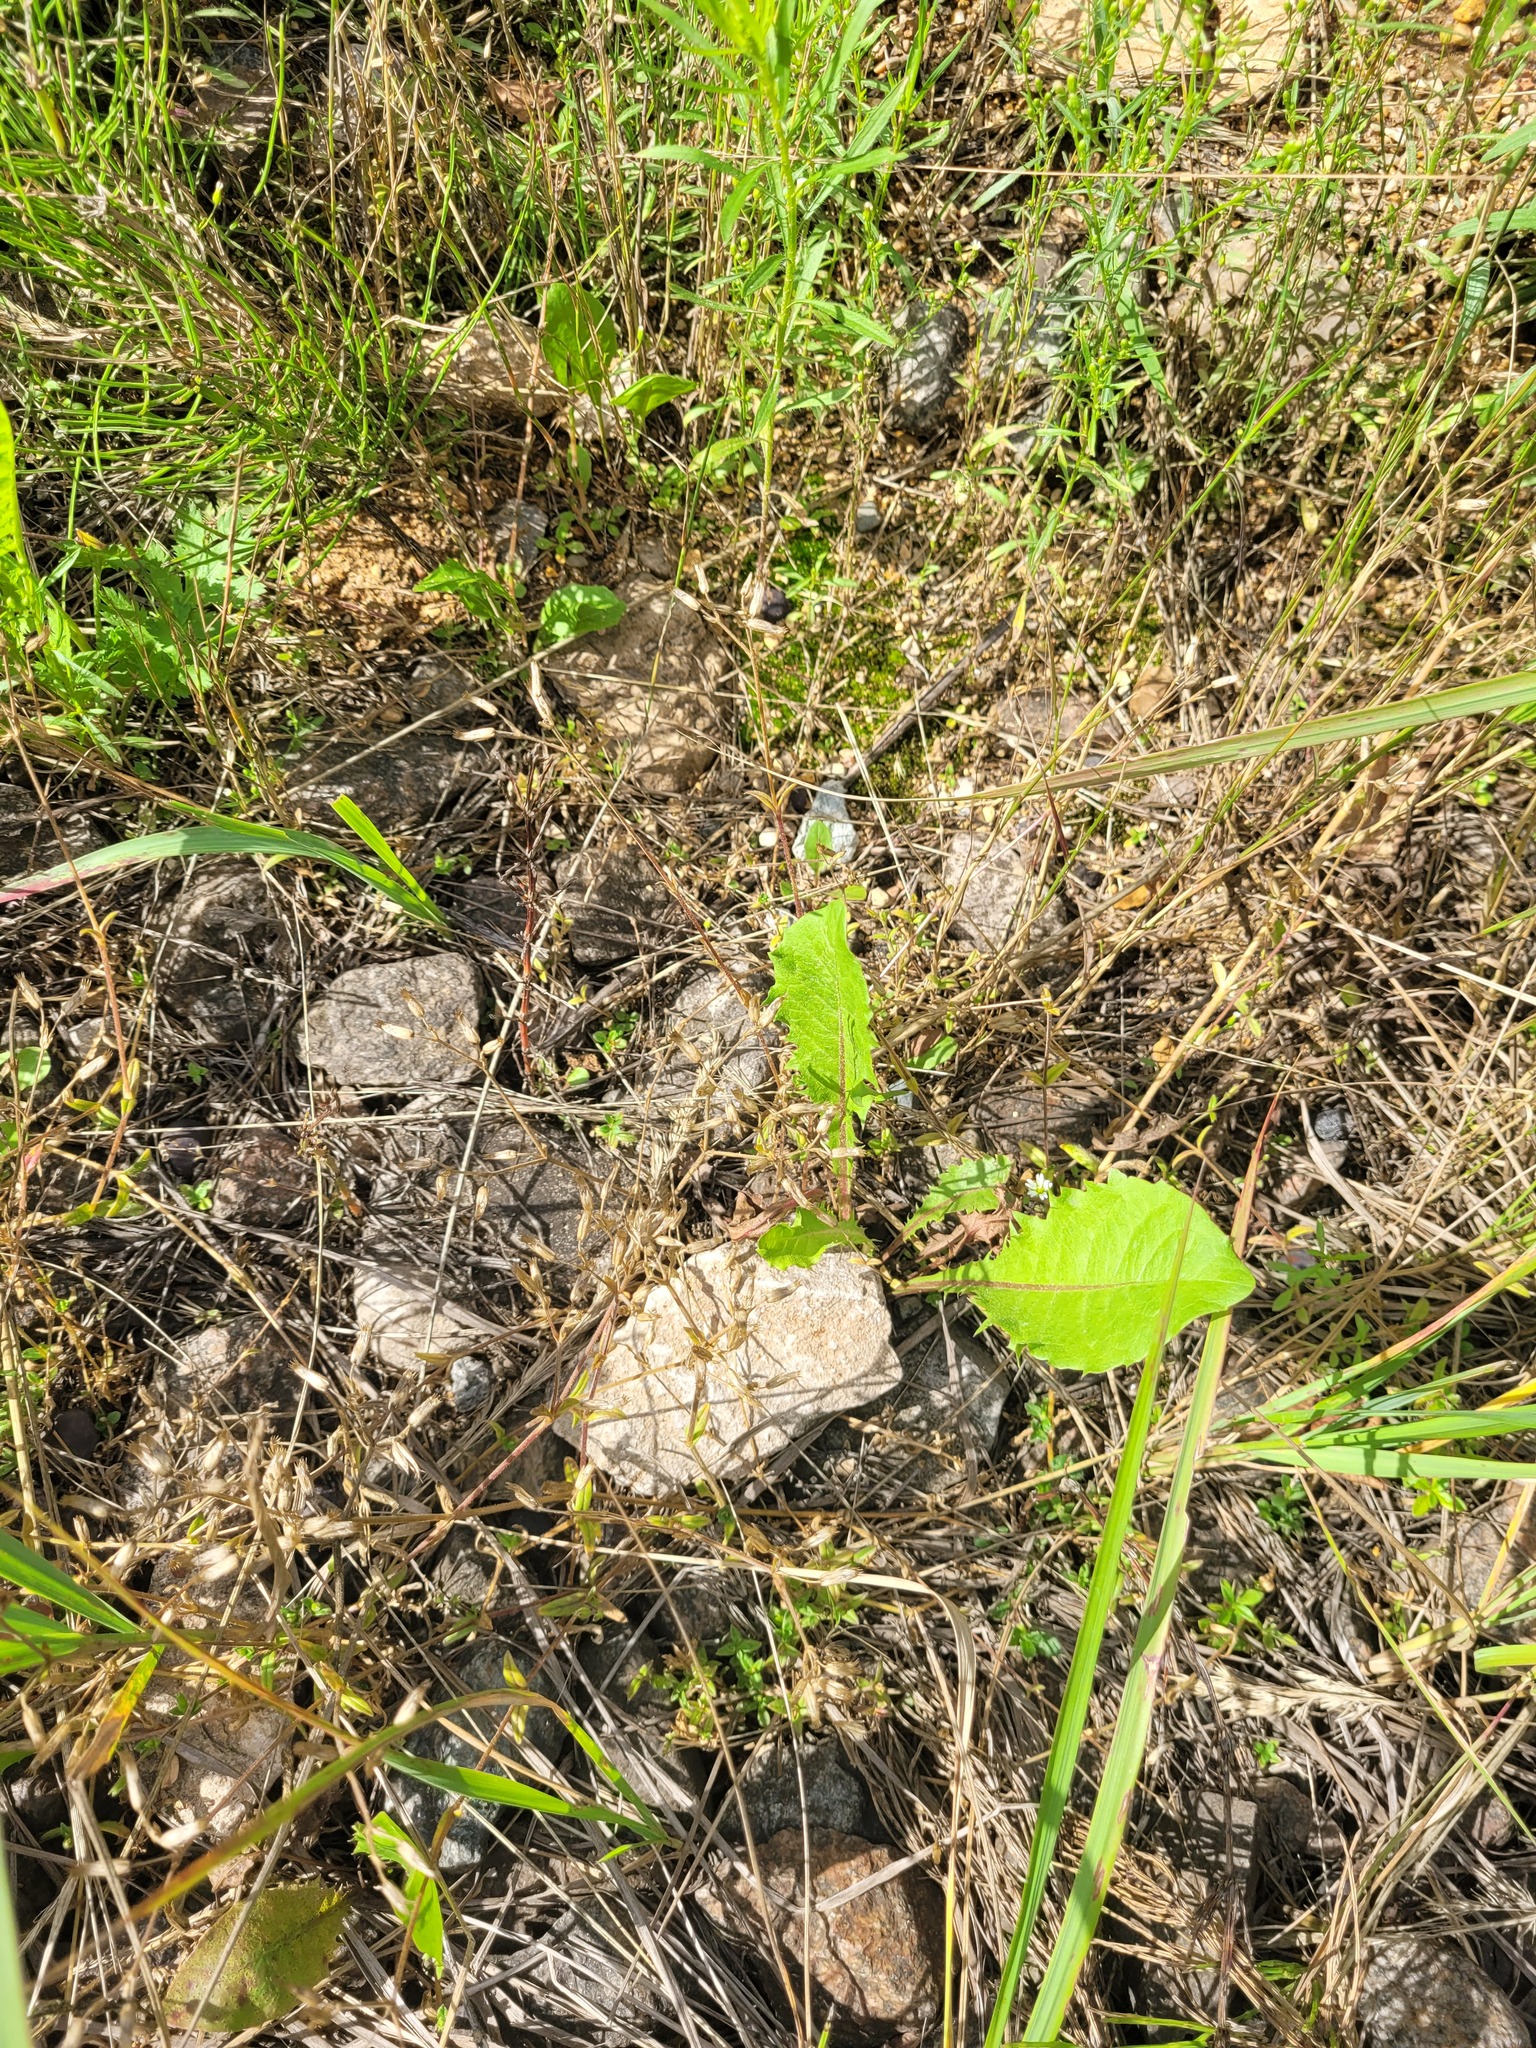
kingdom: Plantae
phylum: Tracheophyta
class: Magnoliopsida
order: Caryophyllales
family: Caryophyllaceae
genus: Cerastium
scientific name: Cerastium holosteoides
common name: Big chickweed
